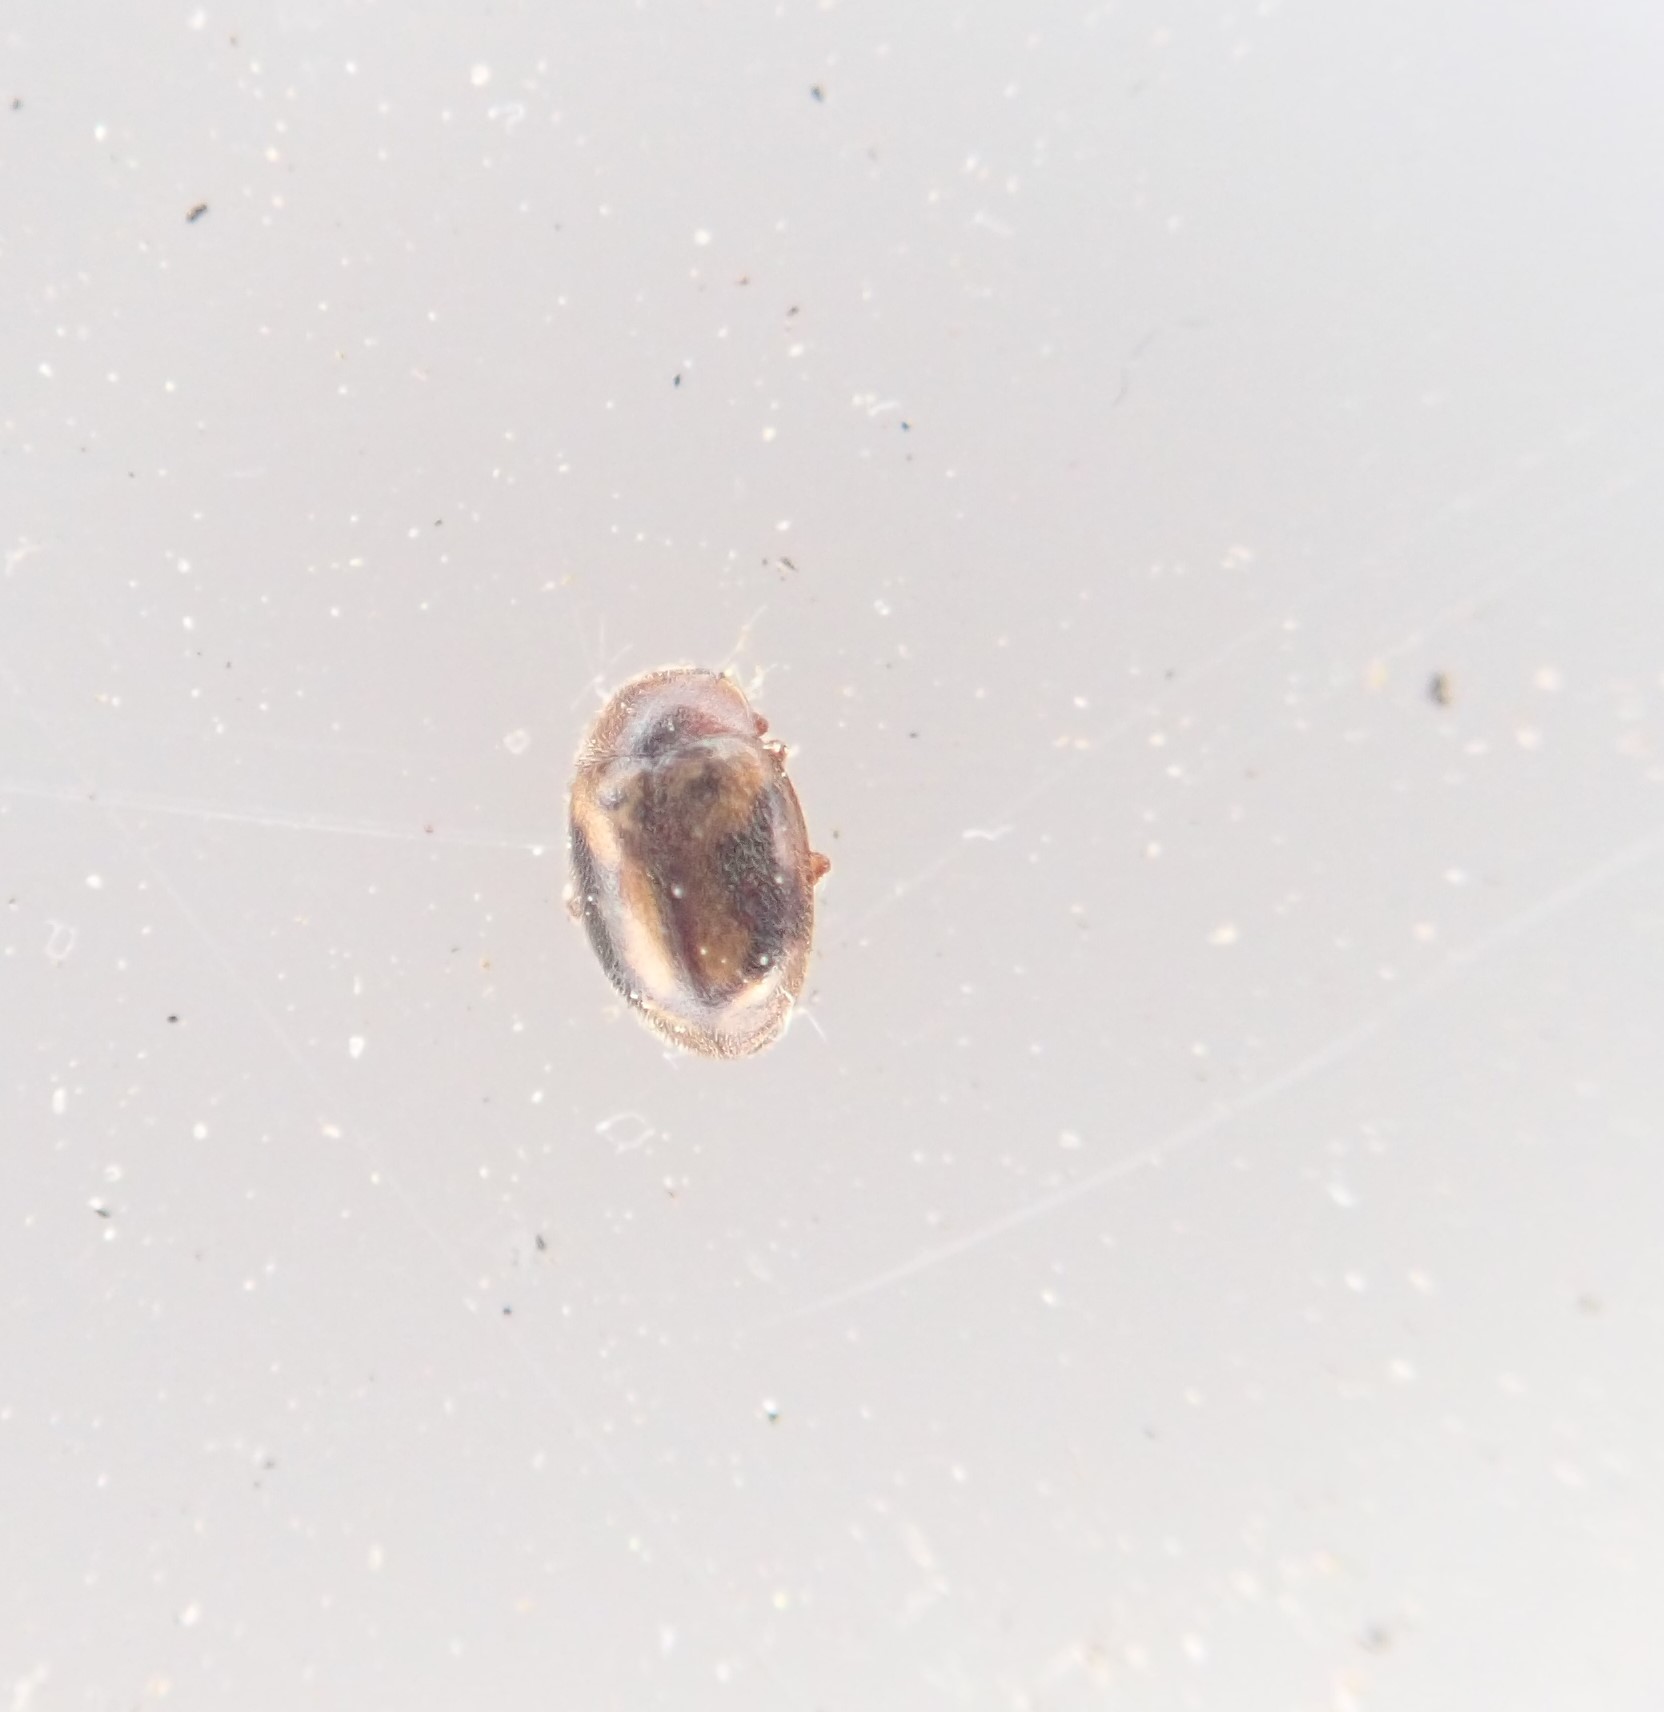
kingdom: Animalia
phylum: Arthropoda
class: Insecta
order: Coleoptera
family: Coccinellidae
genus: Rhyzobius
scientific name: Rhyzobius chrysomeloides
